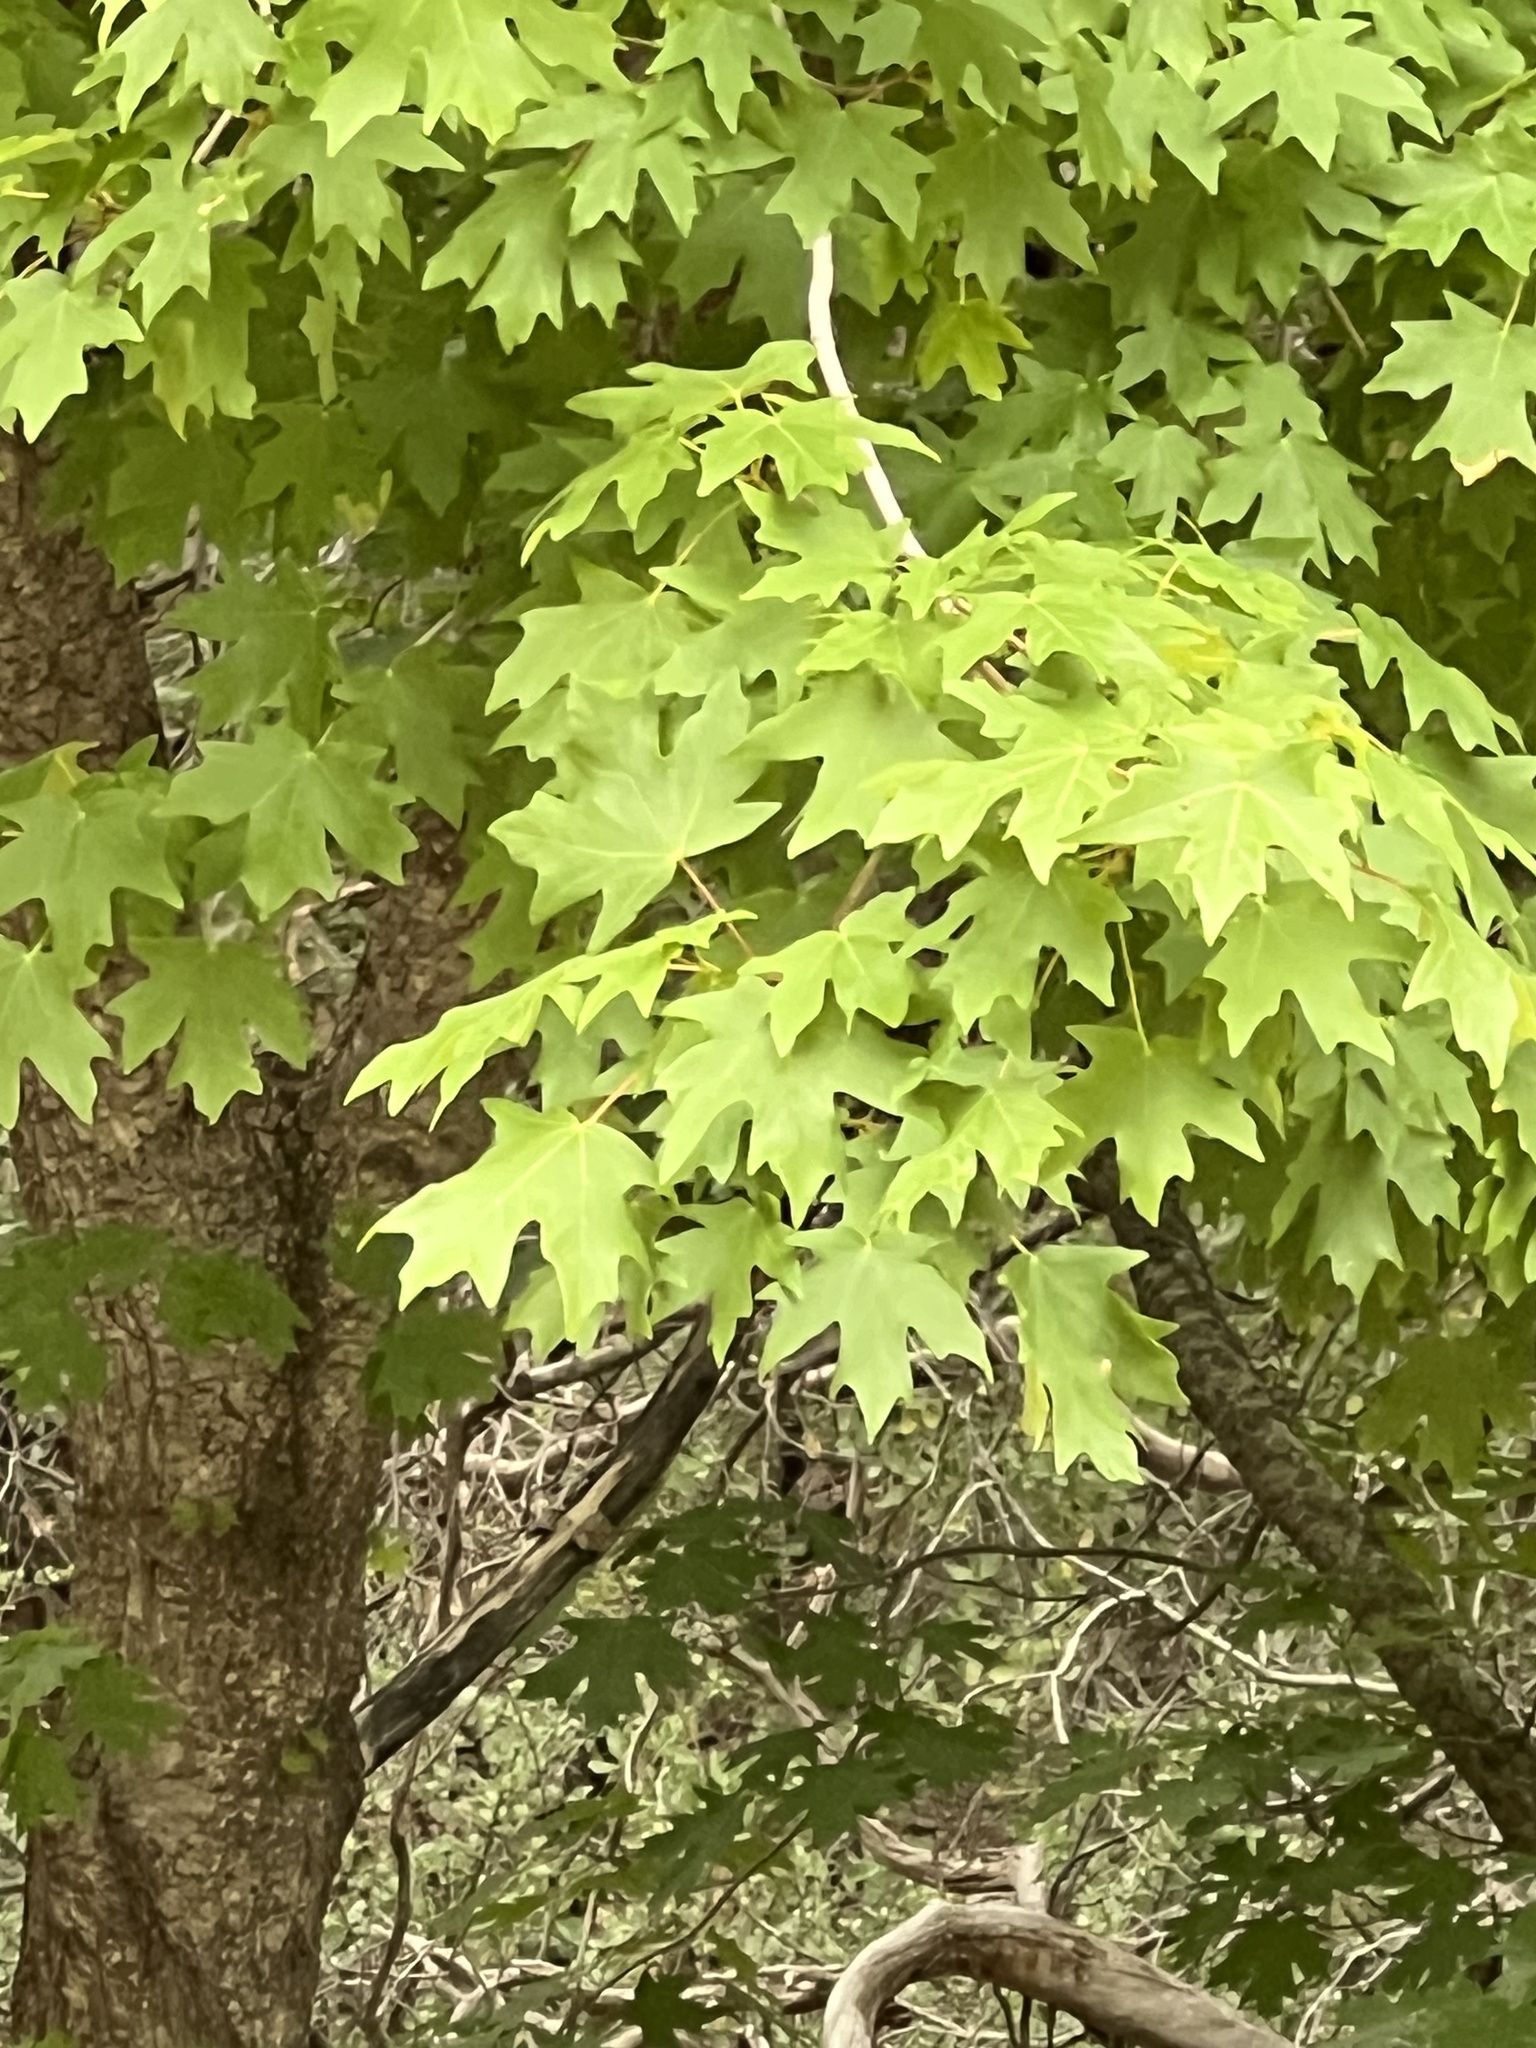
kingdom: Plantae
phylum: Tracheophyta
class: Magnoliopsida
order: Sapindales
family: Sapindaceae
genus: Acer
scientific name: Acer grandidentatum
